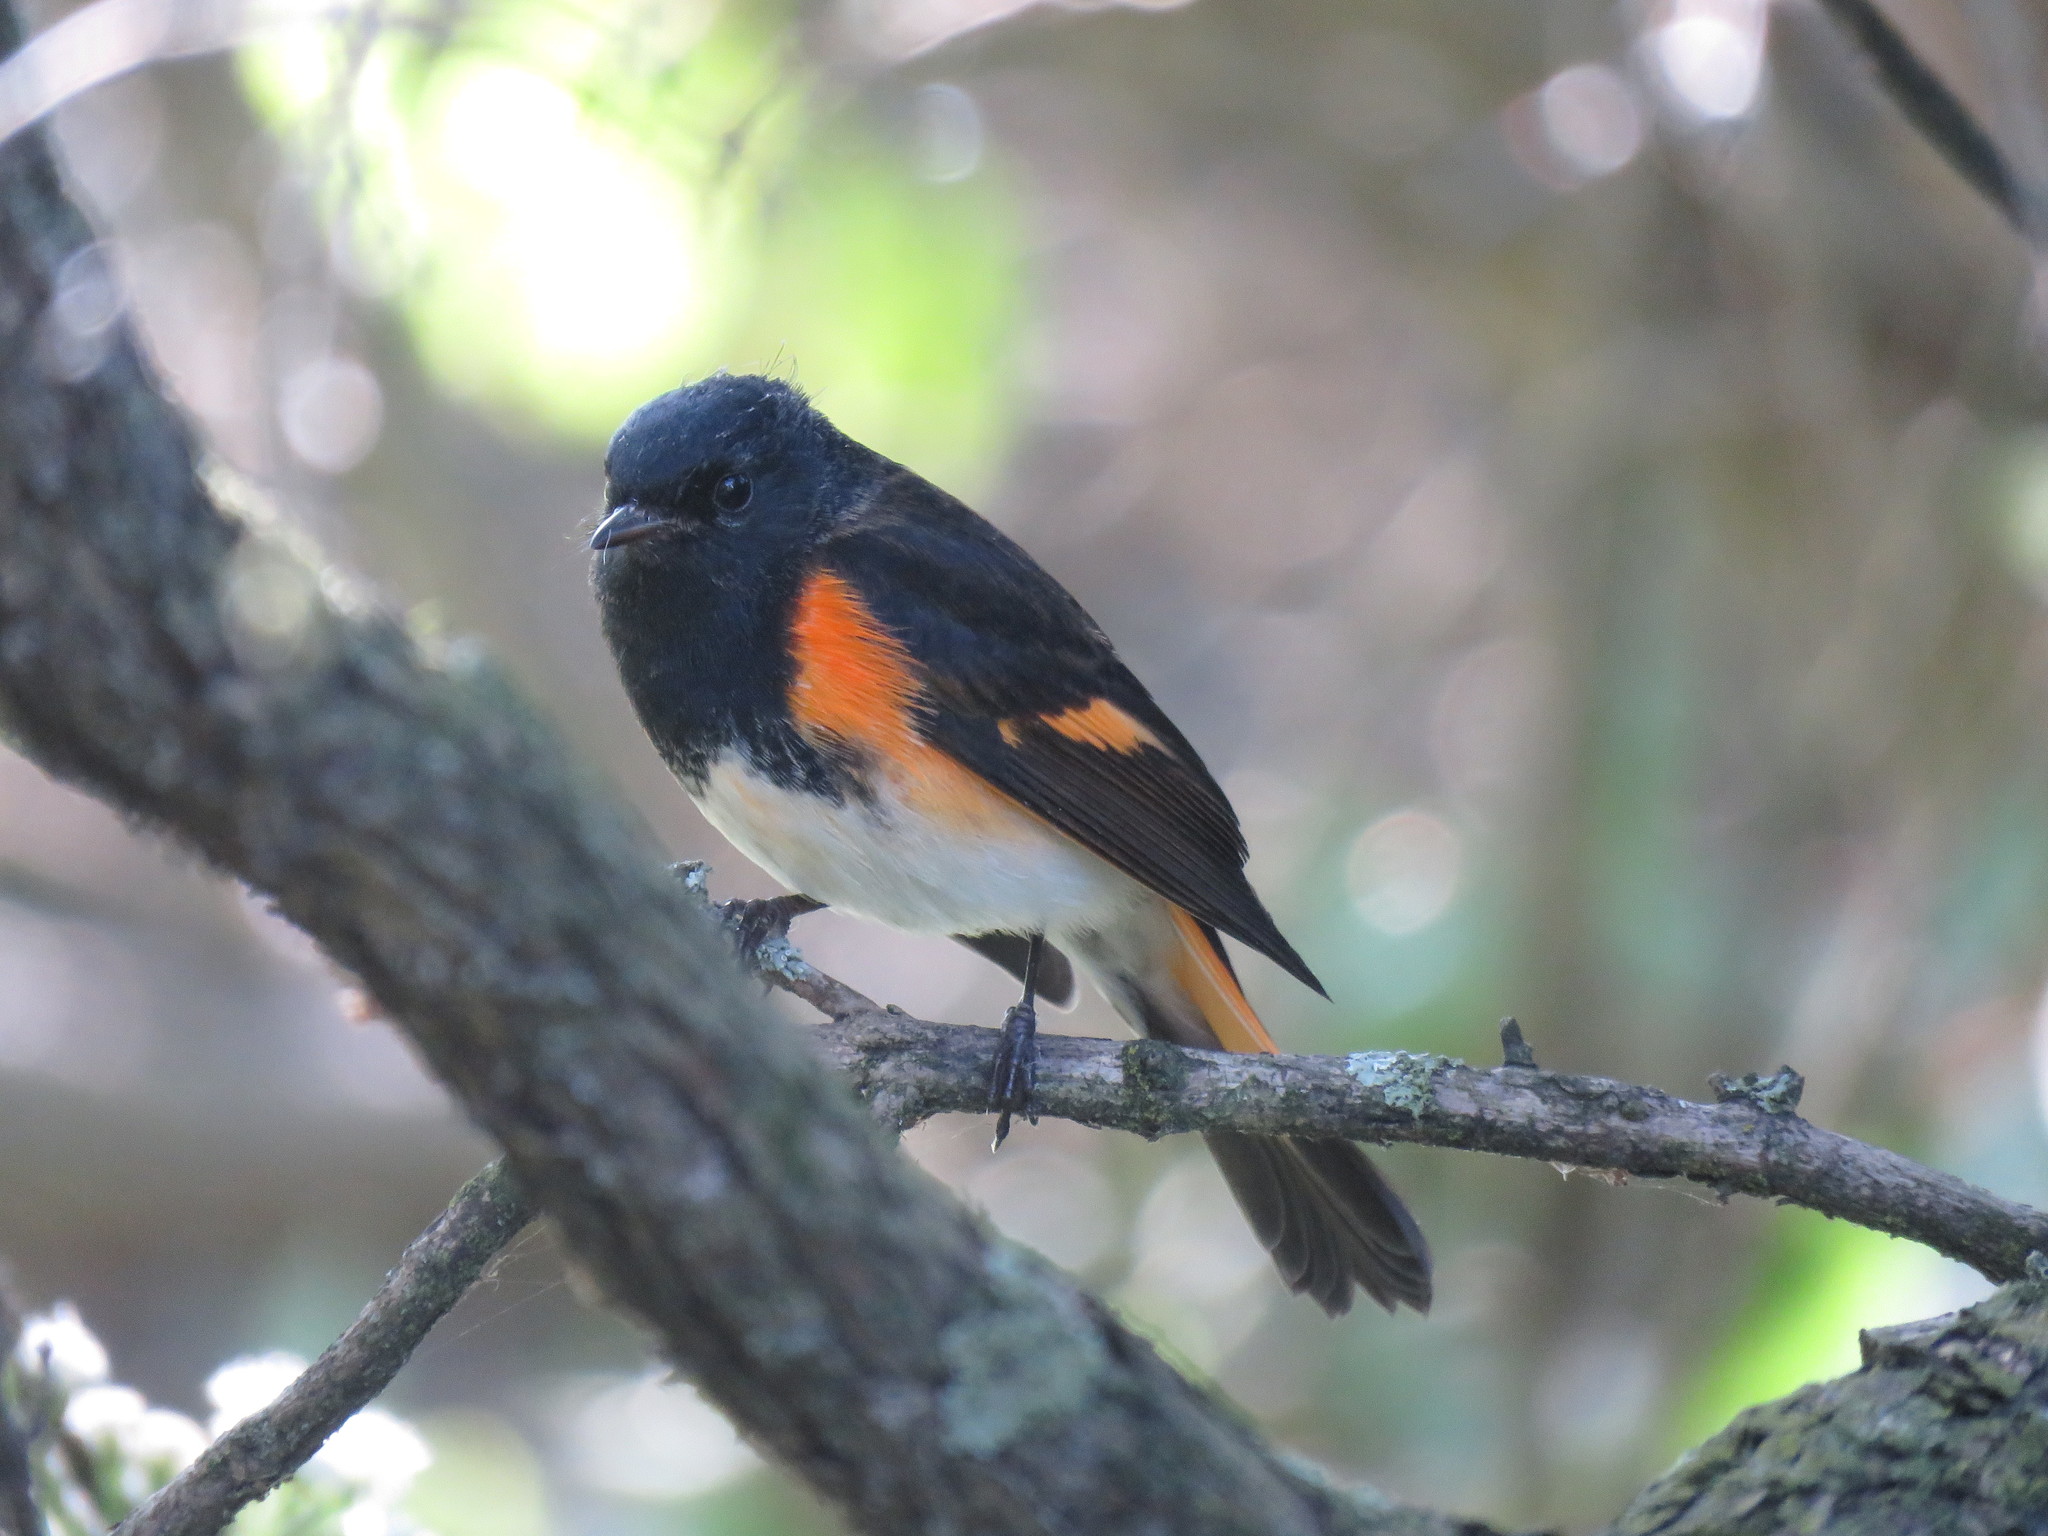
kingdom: Animalia
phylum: Chordata
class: Aves
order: Passeriformes
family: Parulidae
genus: Setophaga
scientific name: Setophaga ruticilla
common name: American redstart
